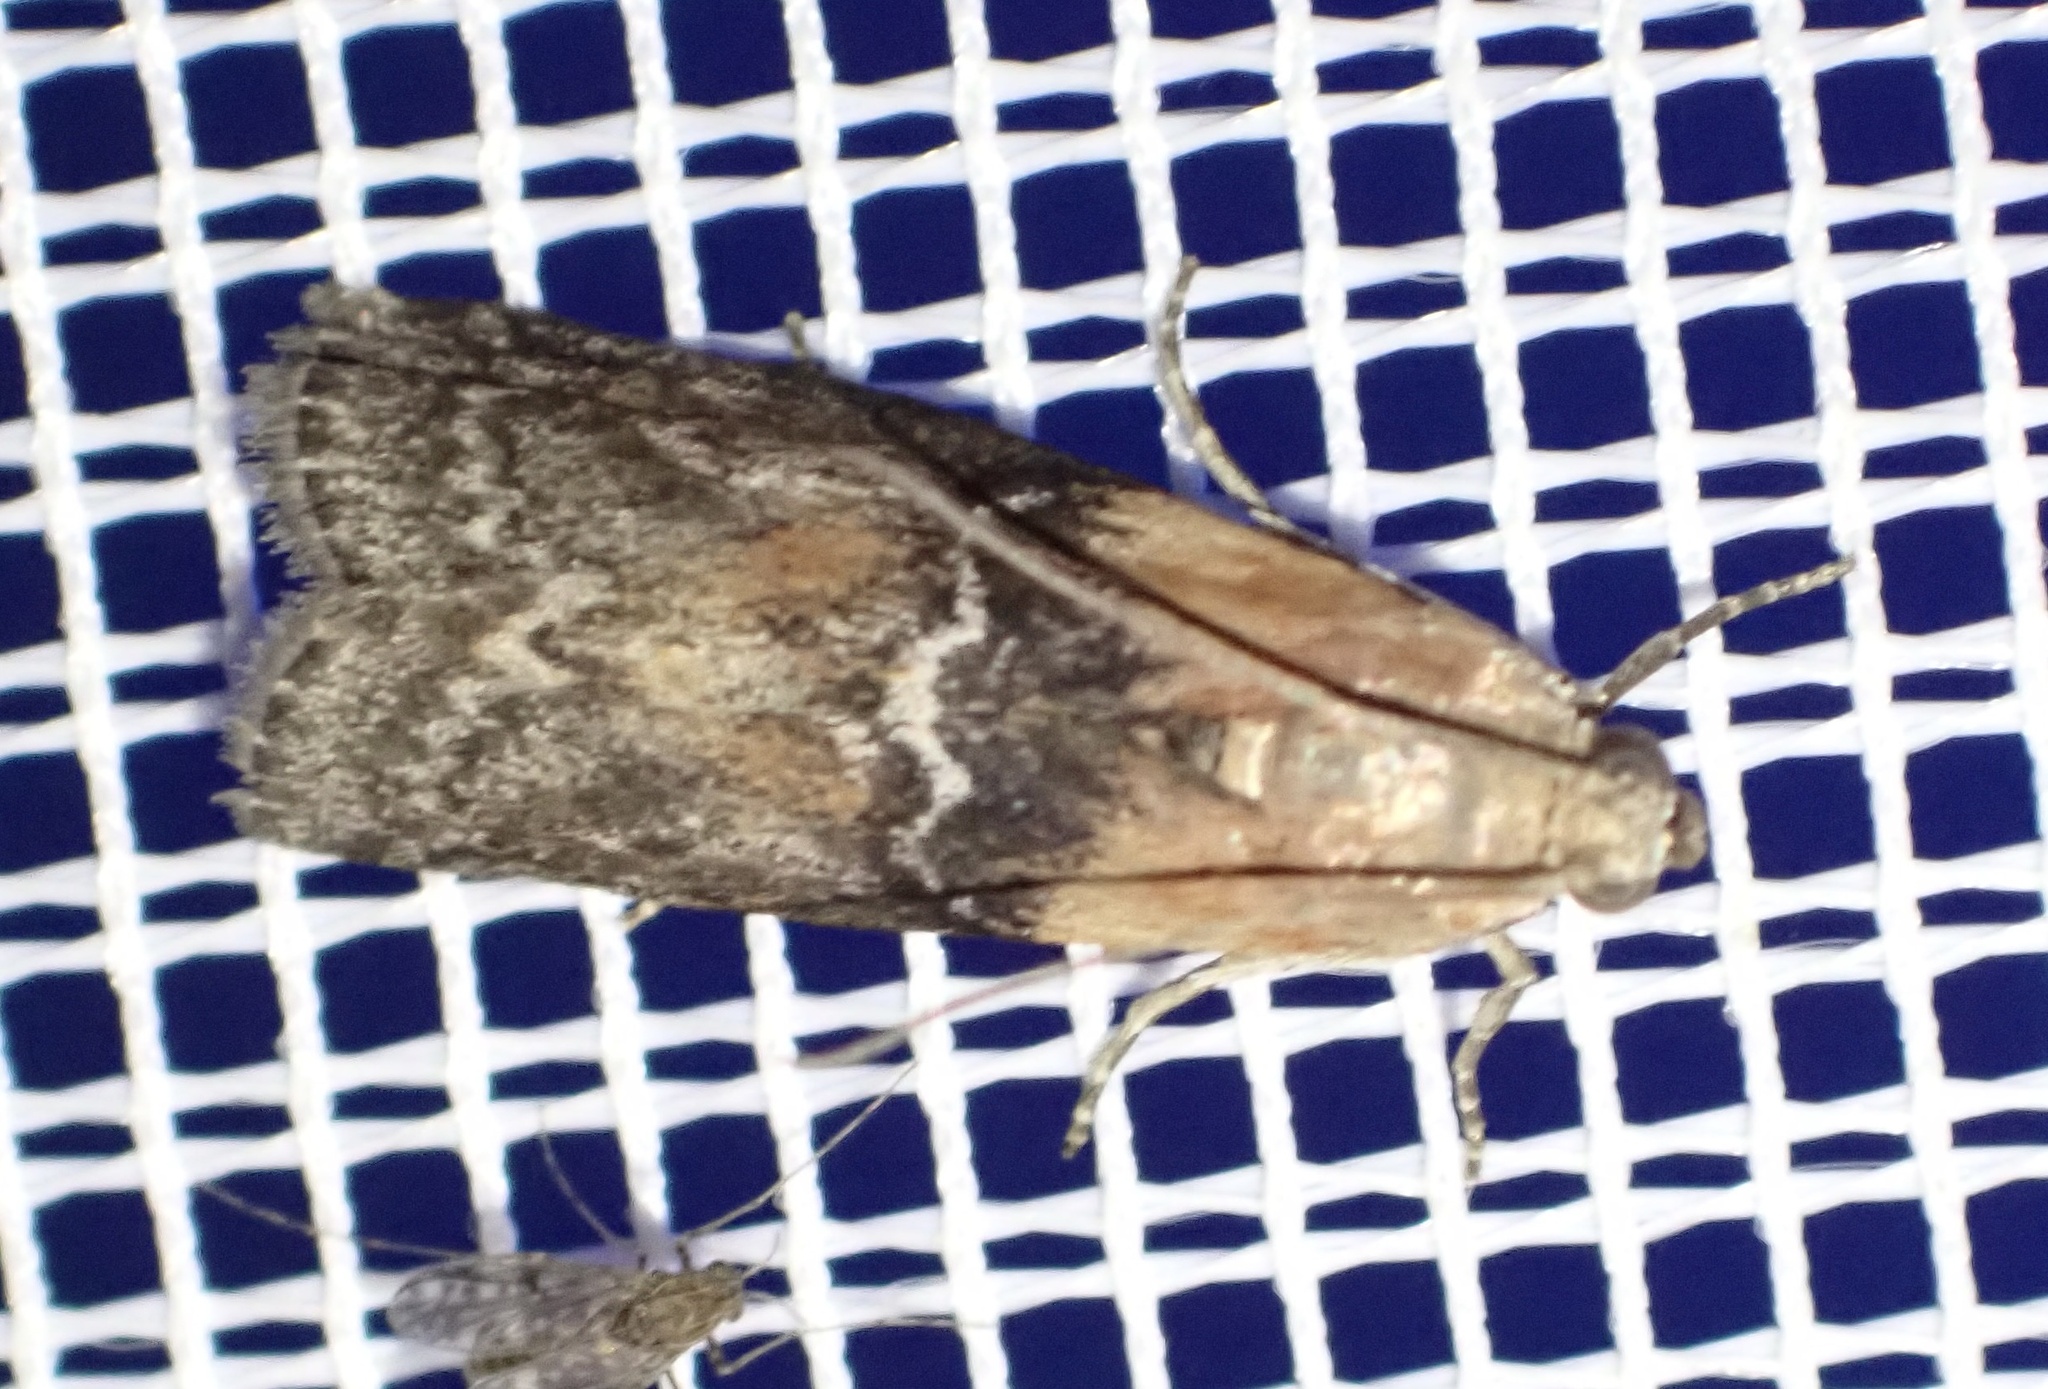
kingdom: Animalia
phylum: Arthropoda
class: Insecta
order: Lepidoptera
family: Pyralidae
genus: Sciota
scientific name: Sciota adelphella
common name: Willow knot-horn
